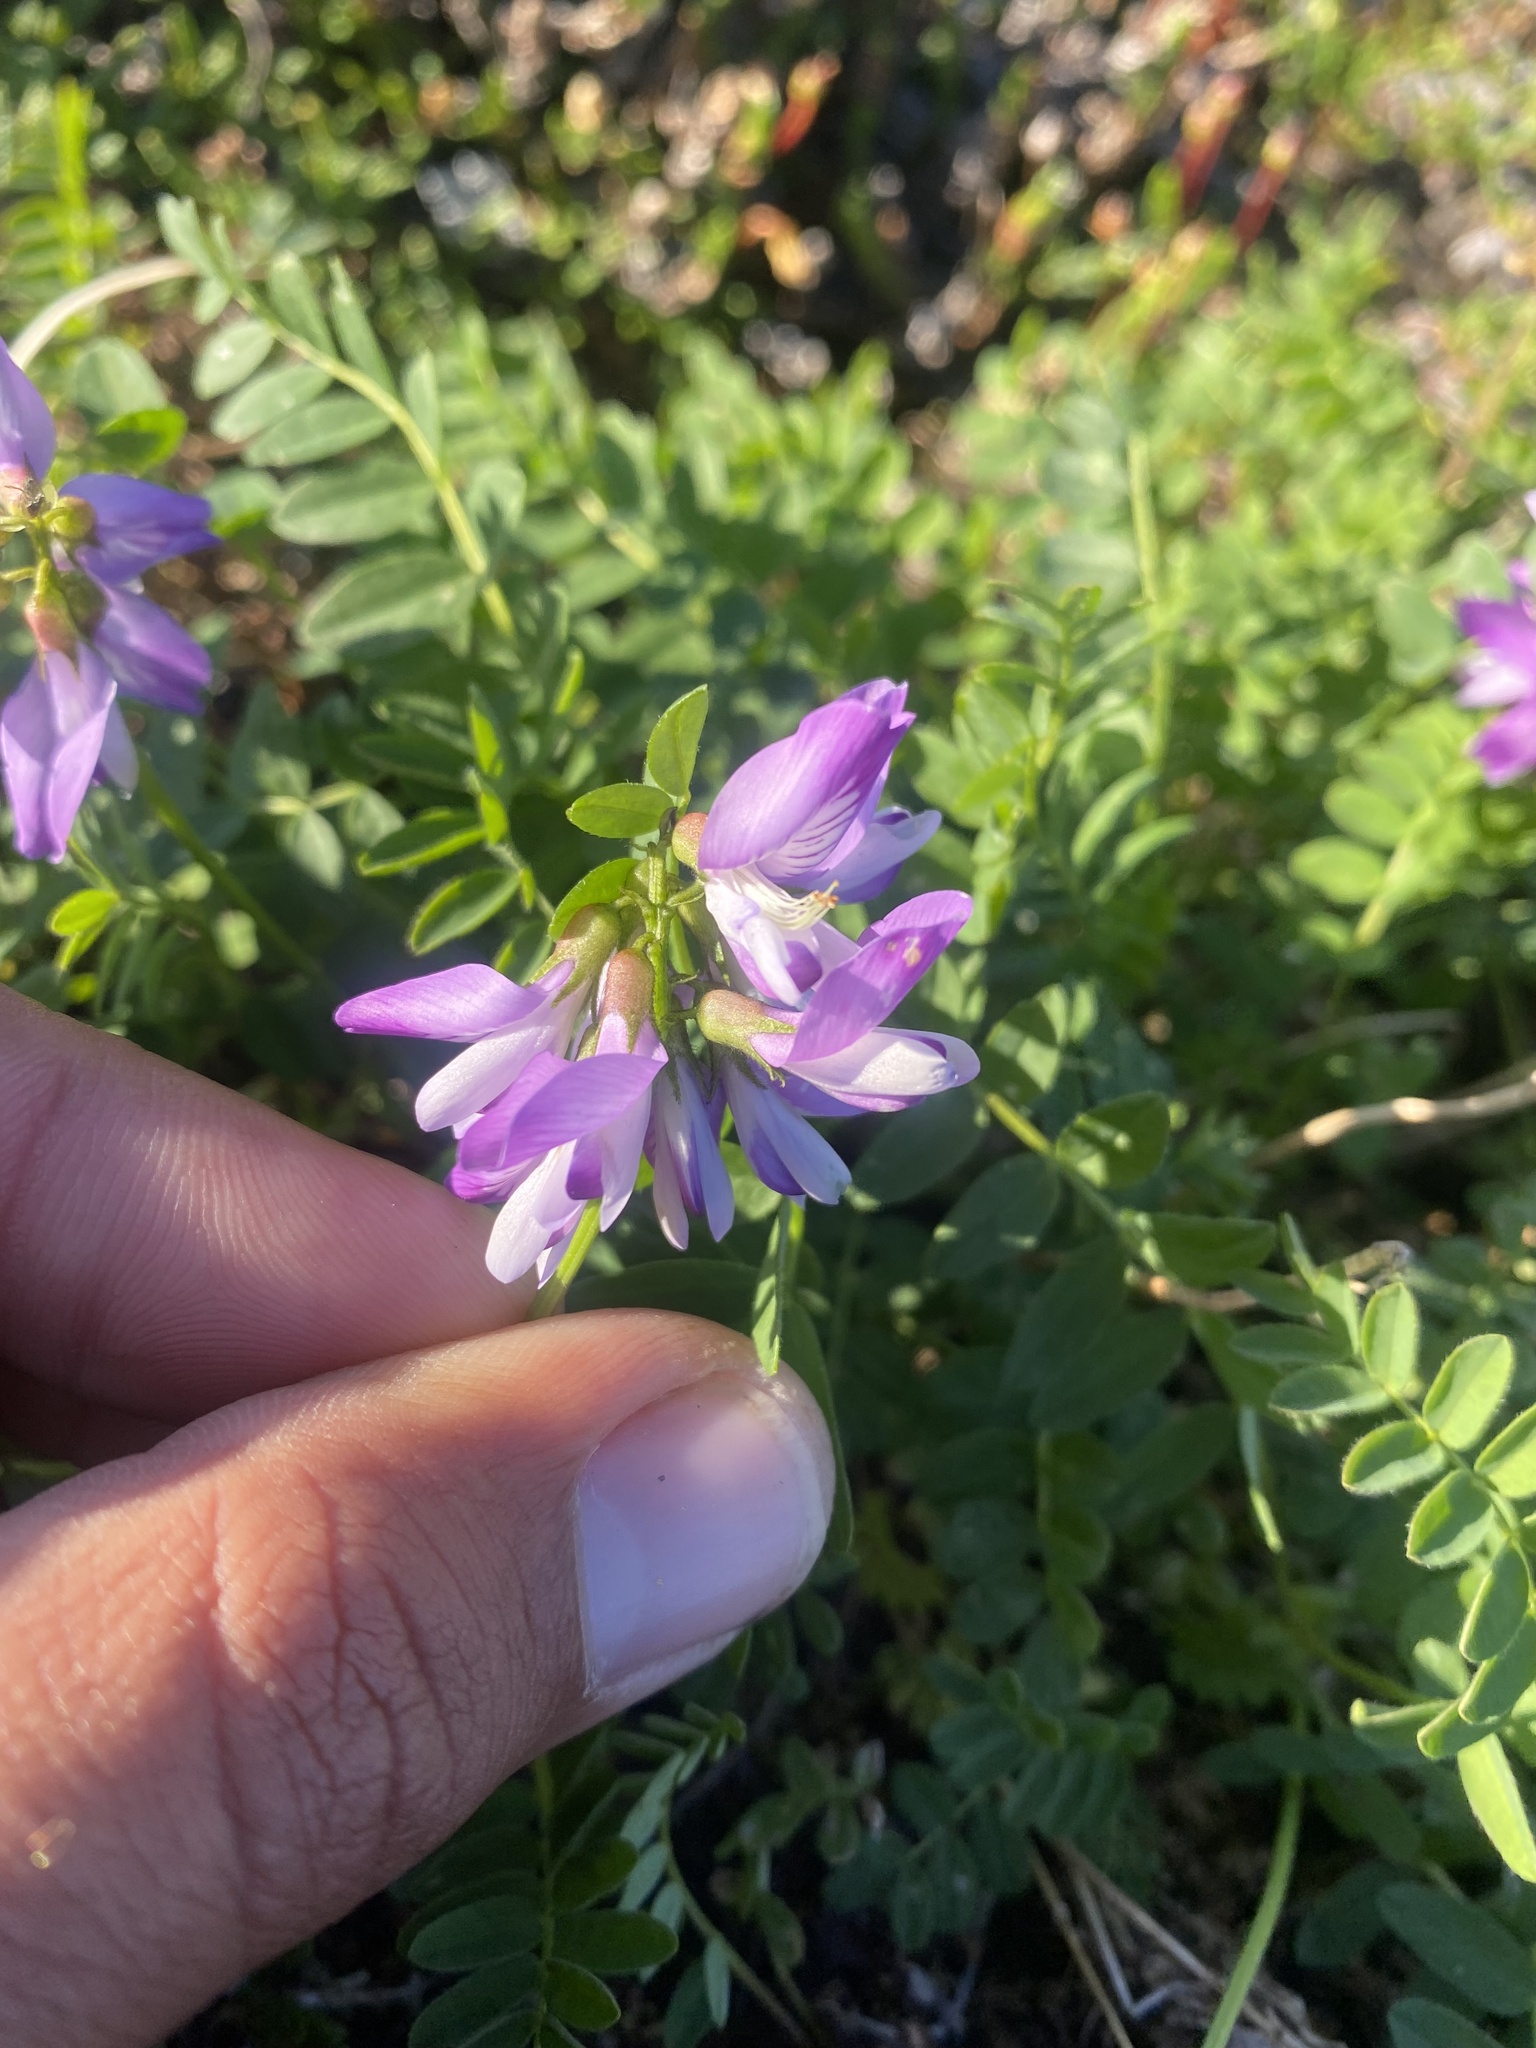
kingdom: Plantae
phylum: Tracheophyta
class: Magnoliopsida
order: Fabales
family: Fabaceae
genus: Astragalus
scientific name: Astragalus alpinus
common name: Alpine milk-vetch
